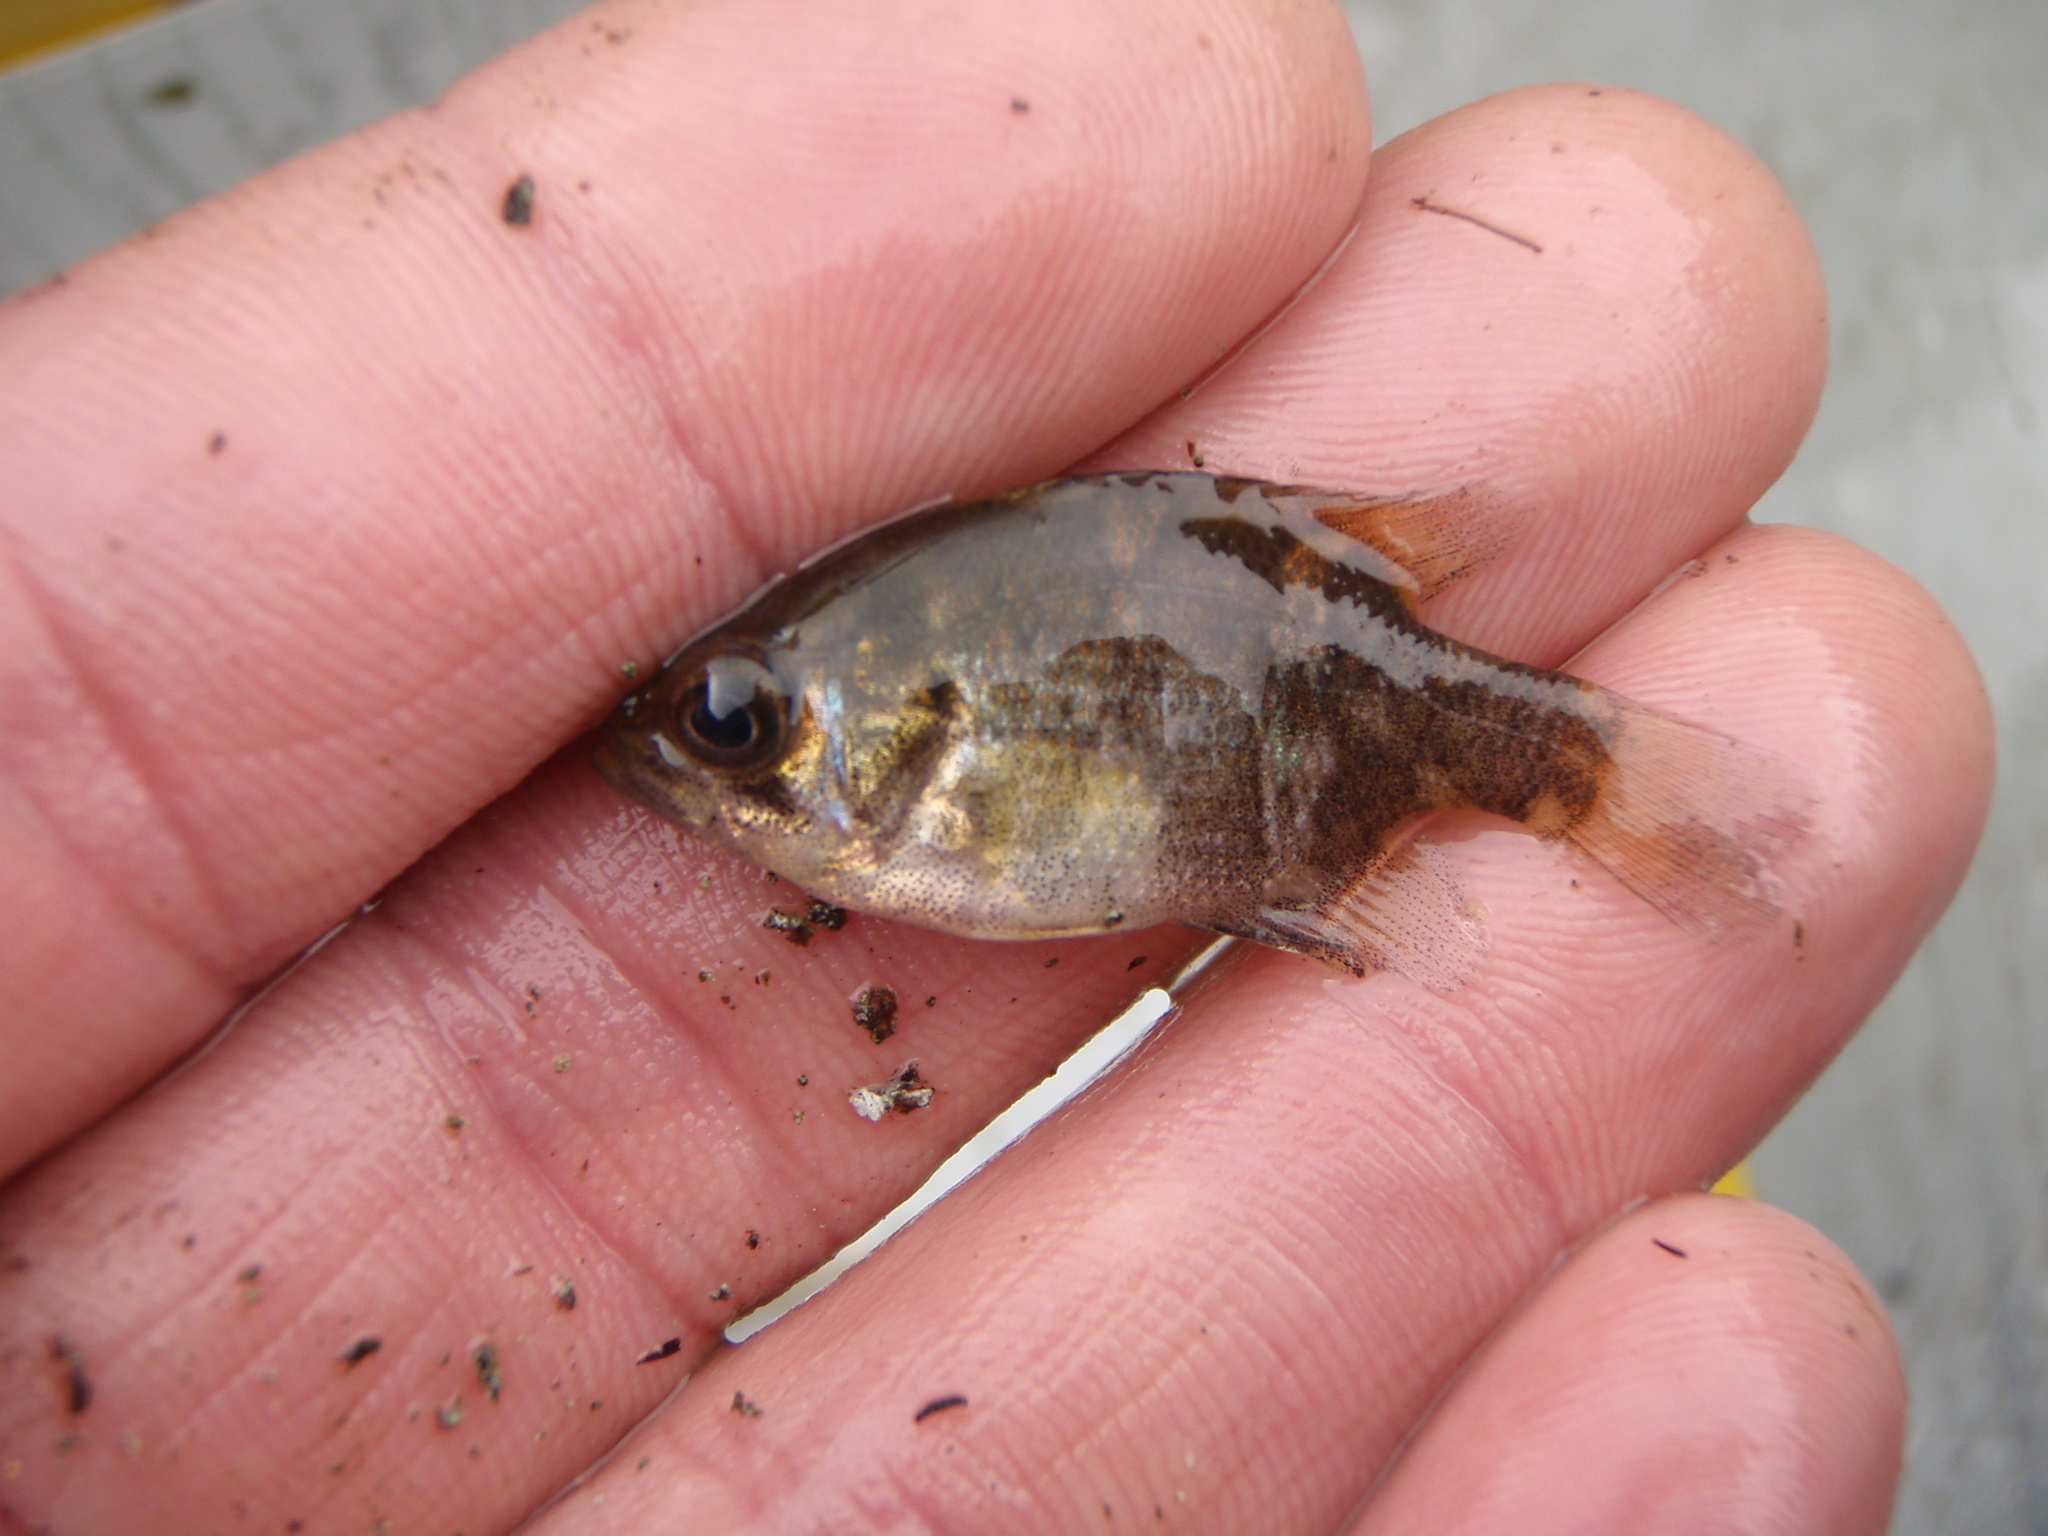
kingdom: Animalia
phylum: Chordata
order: Perciformes
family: Centrarchidae
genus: Ambloplites
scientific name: Ambloplites rupestris
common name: Rock bass
